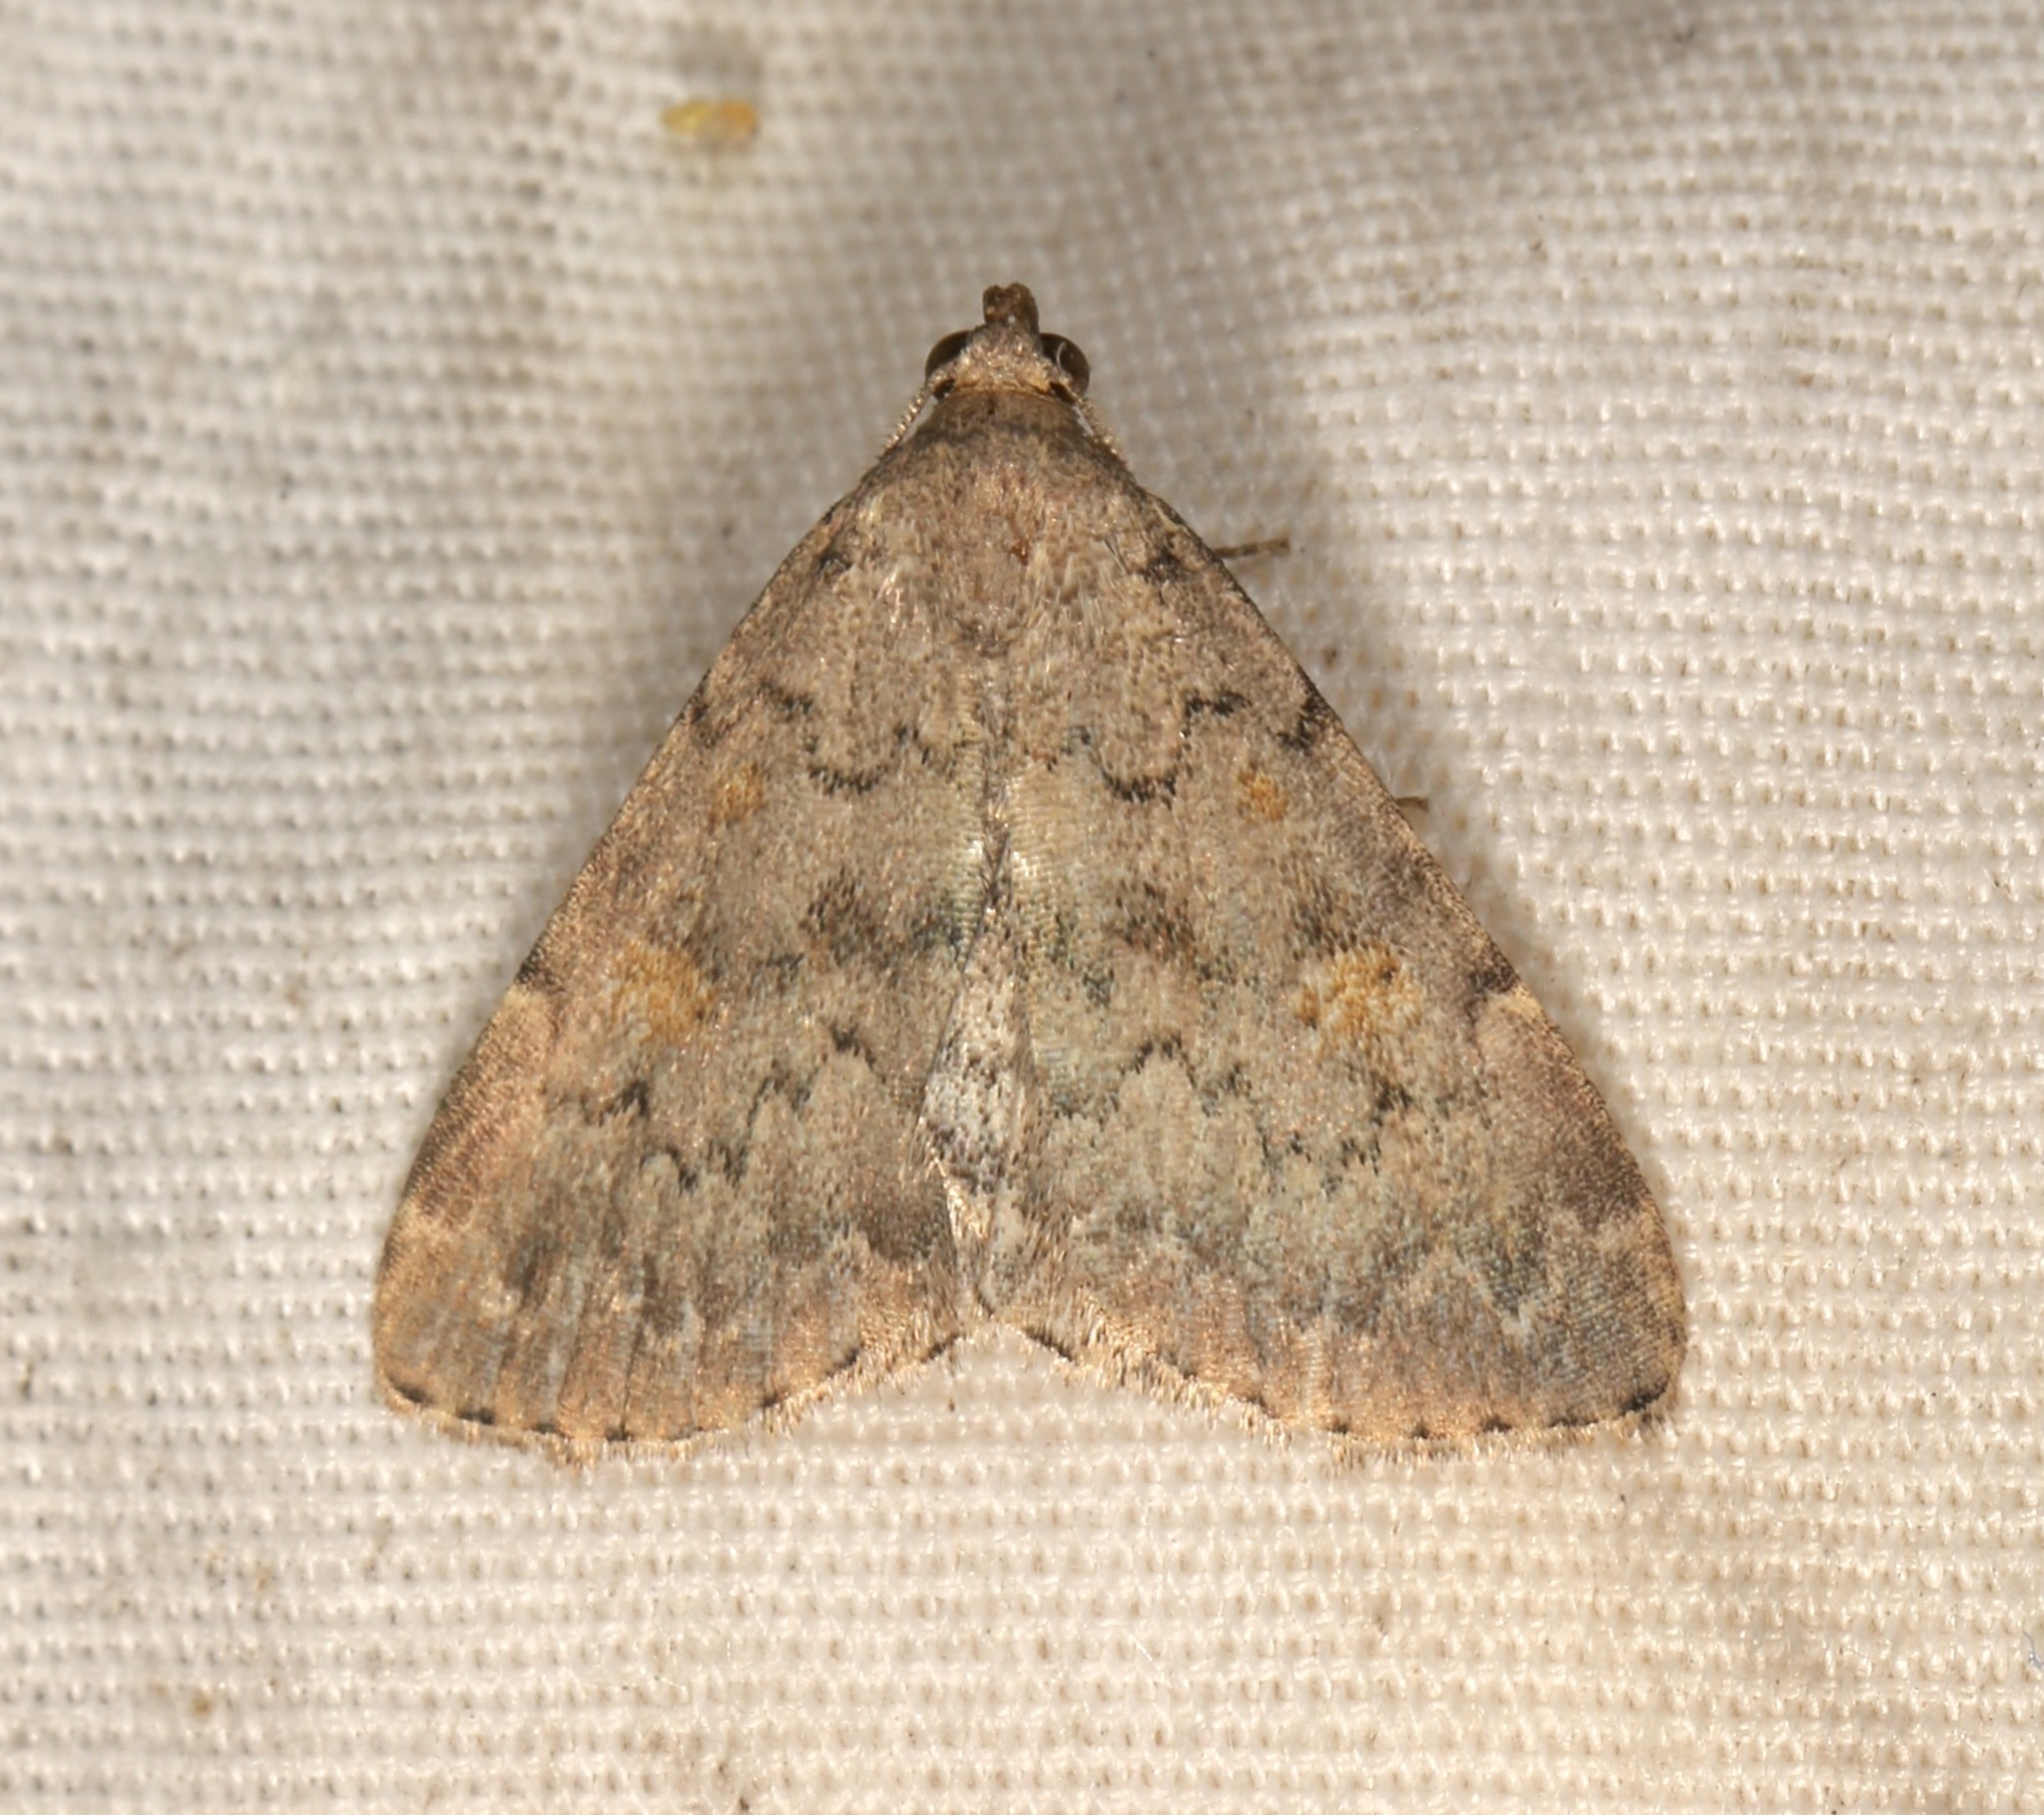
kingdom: Animalia
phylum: Arthropoda
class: Insecta
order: Lepidoptera
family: Erebidae
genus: Idia
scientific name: Idia aemula
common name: Common idia moth
